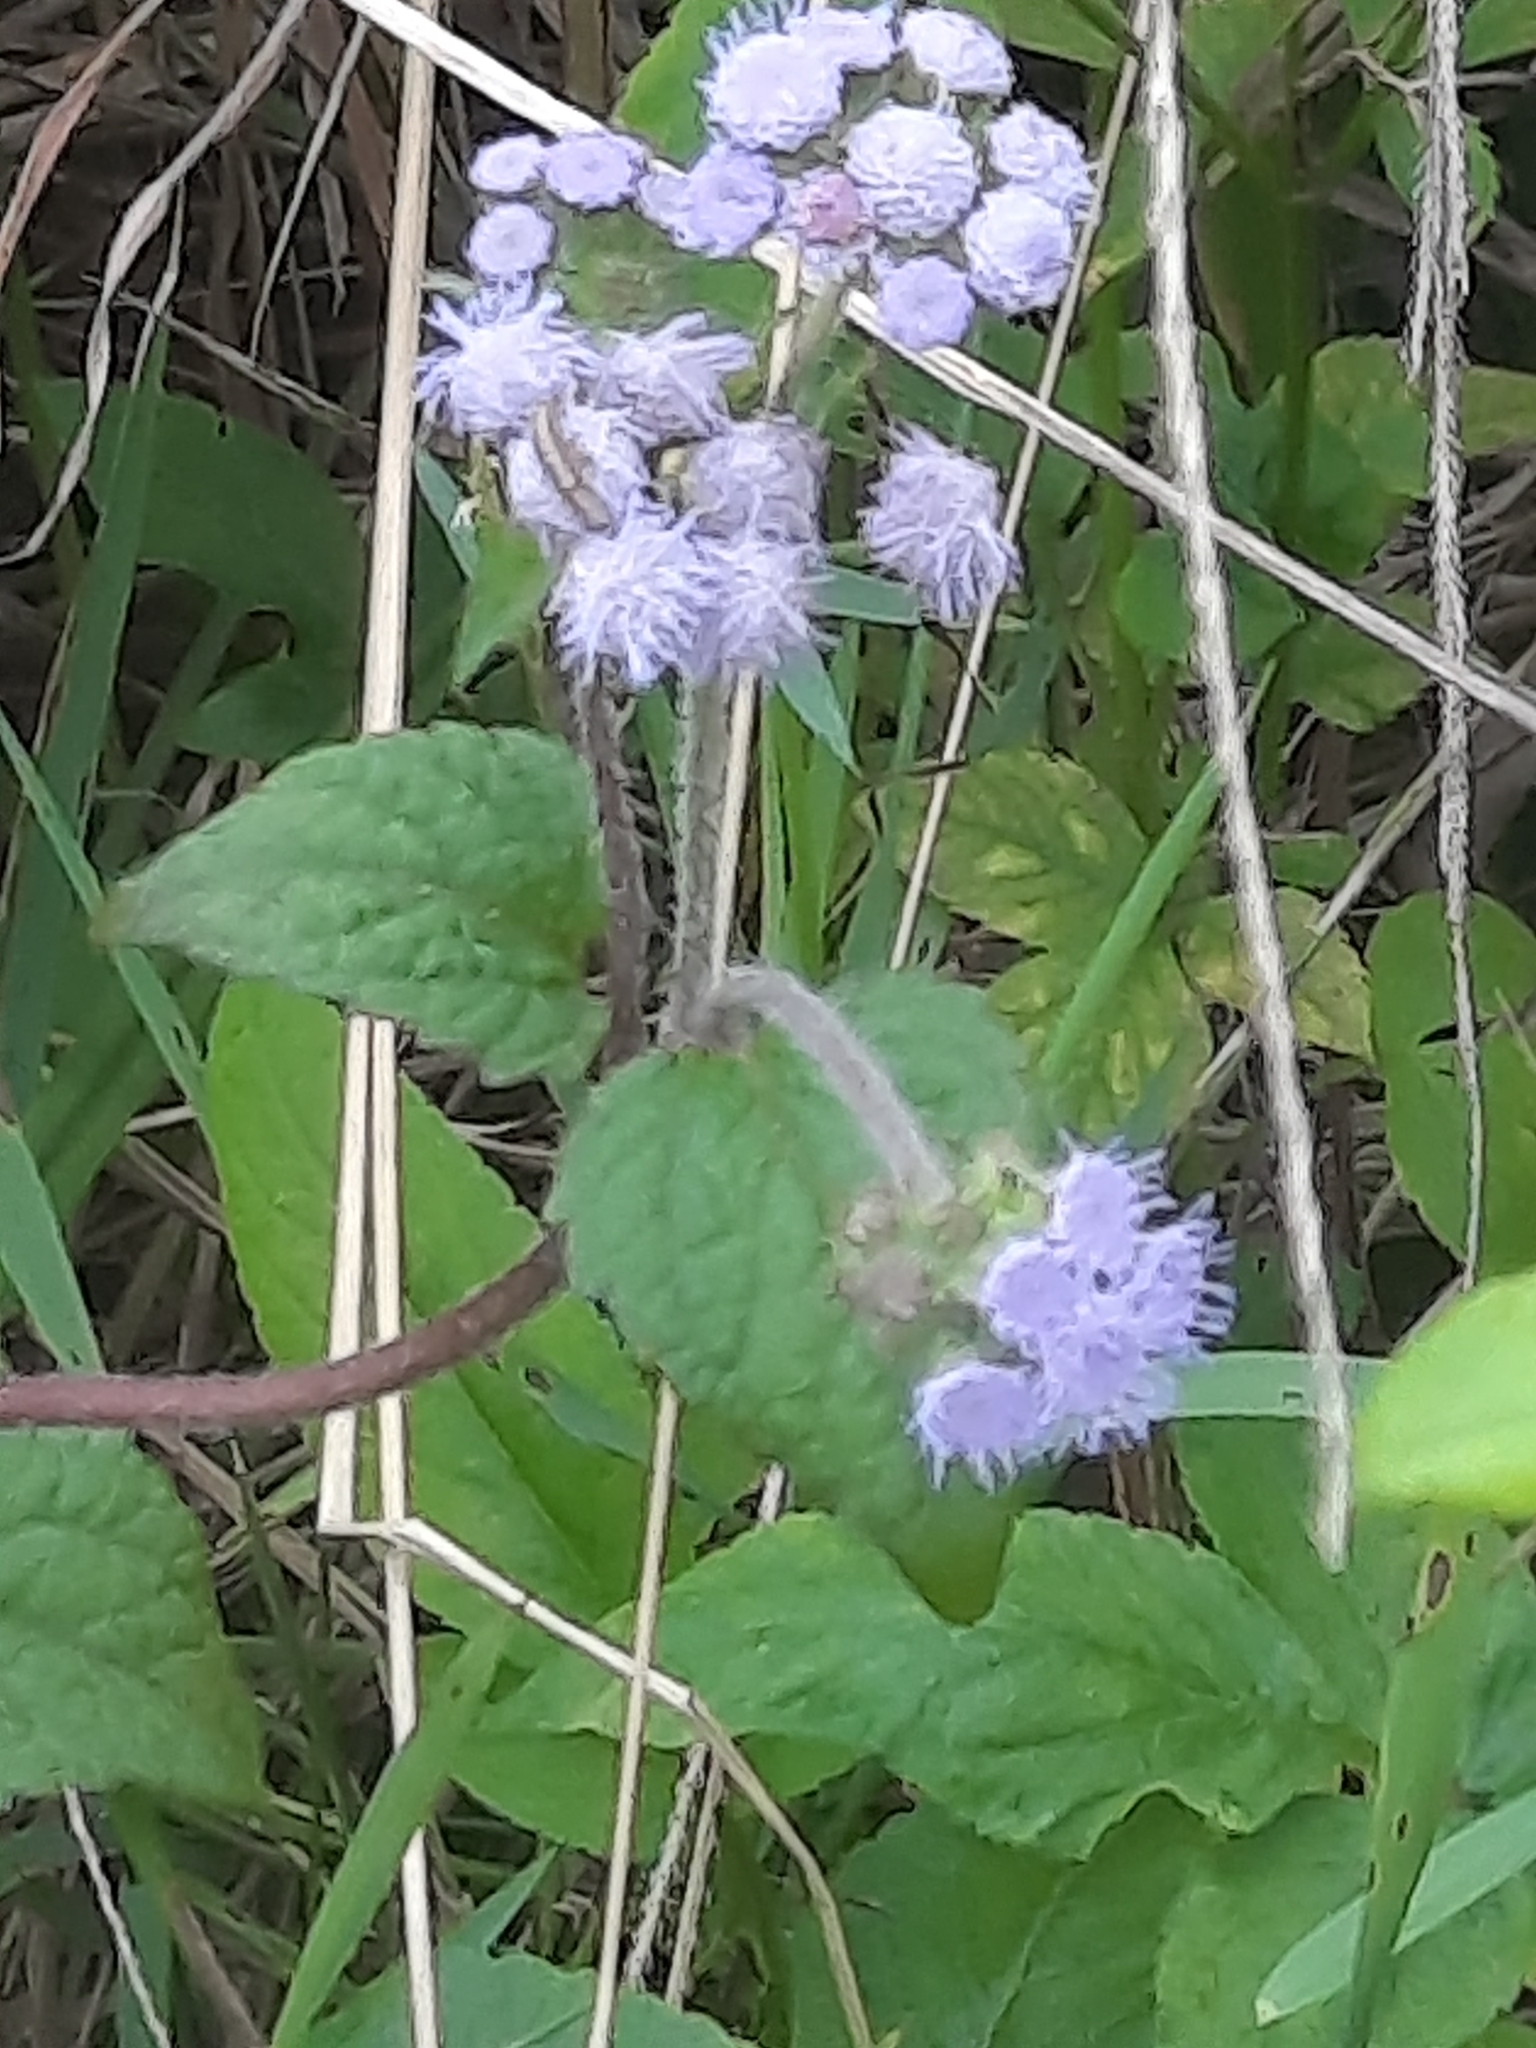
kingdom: Plantae
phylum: Tracheophyta
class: Magnoliopsida
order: Asterales
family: Asteraceae
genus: Ageratum
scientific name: Ageratum houstonianum
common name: Bluemink
